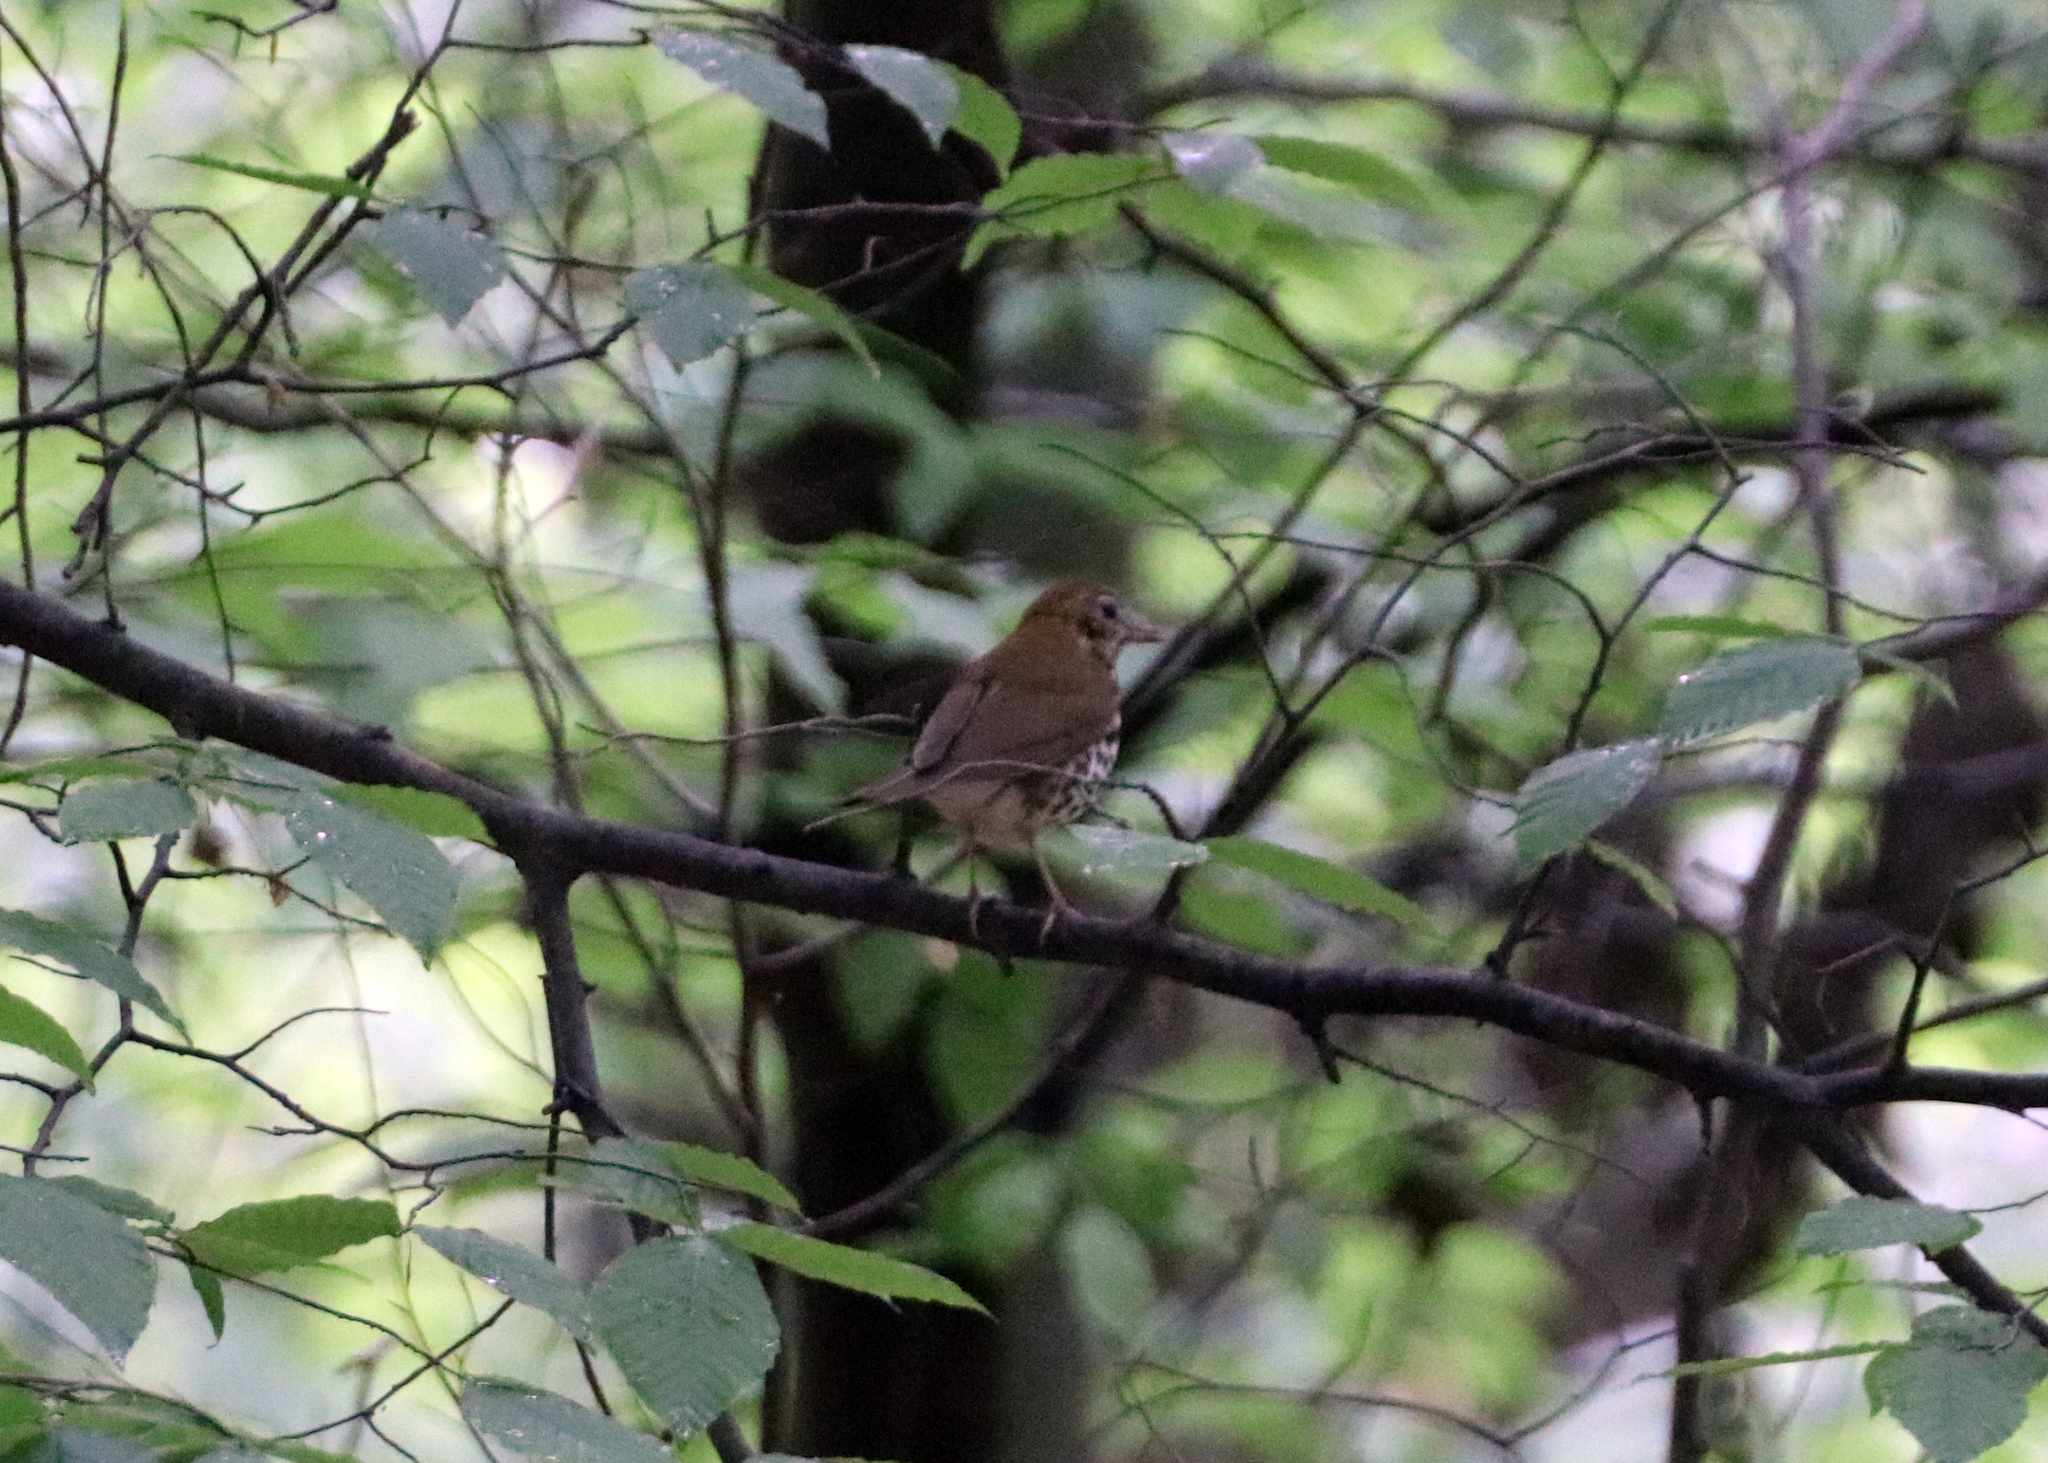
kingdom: Animalia
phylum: Chordata
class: Aves
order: Passeriformes
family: Turdidae
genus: Hylocichla
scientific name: Hylocichla mustelina
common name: Wood thrush
